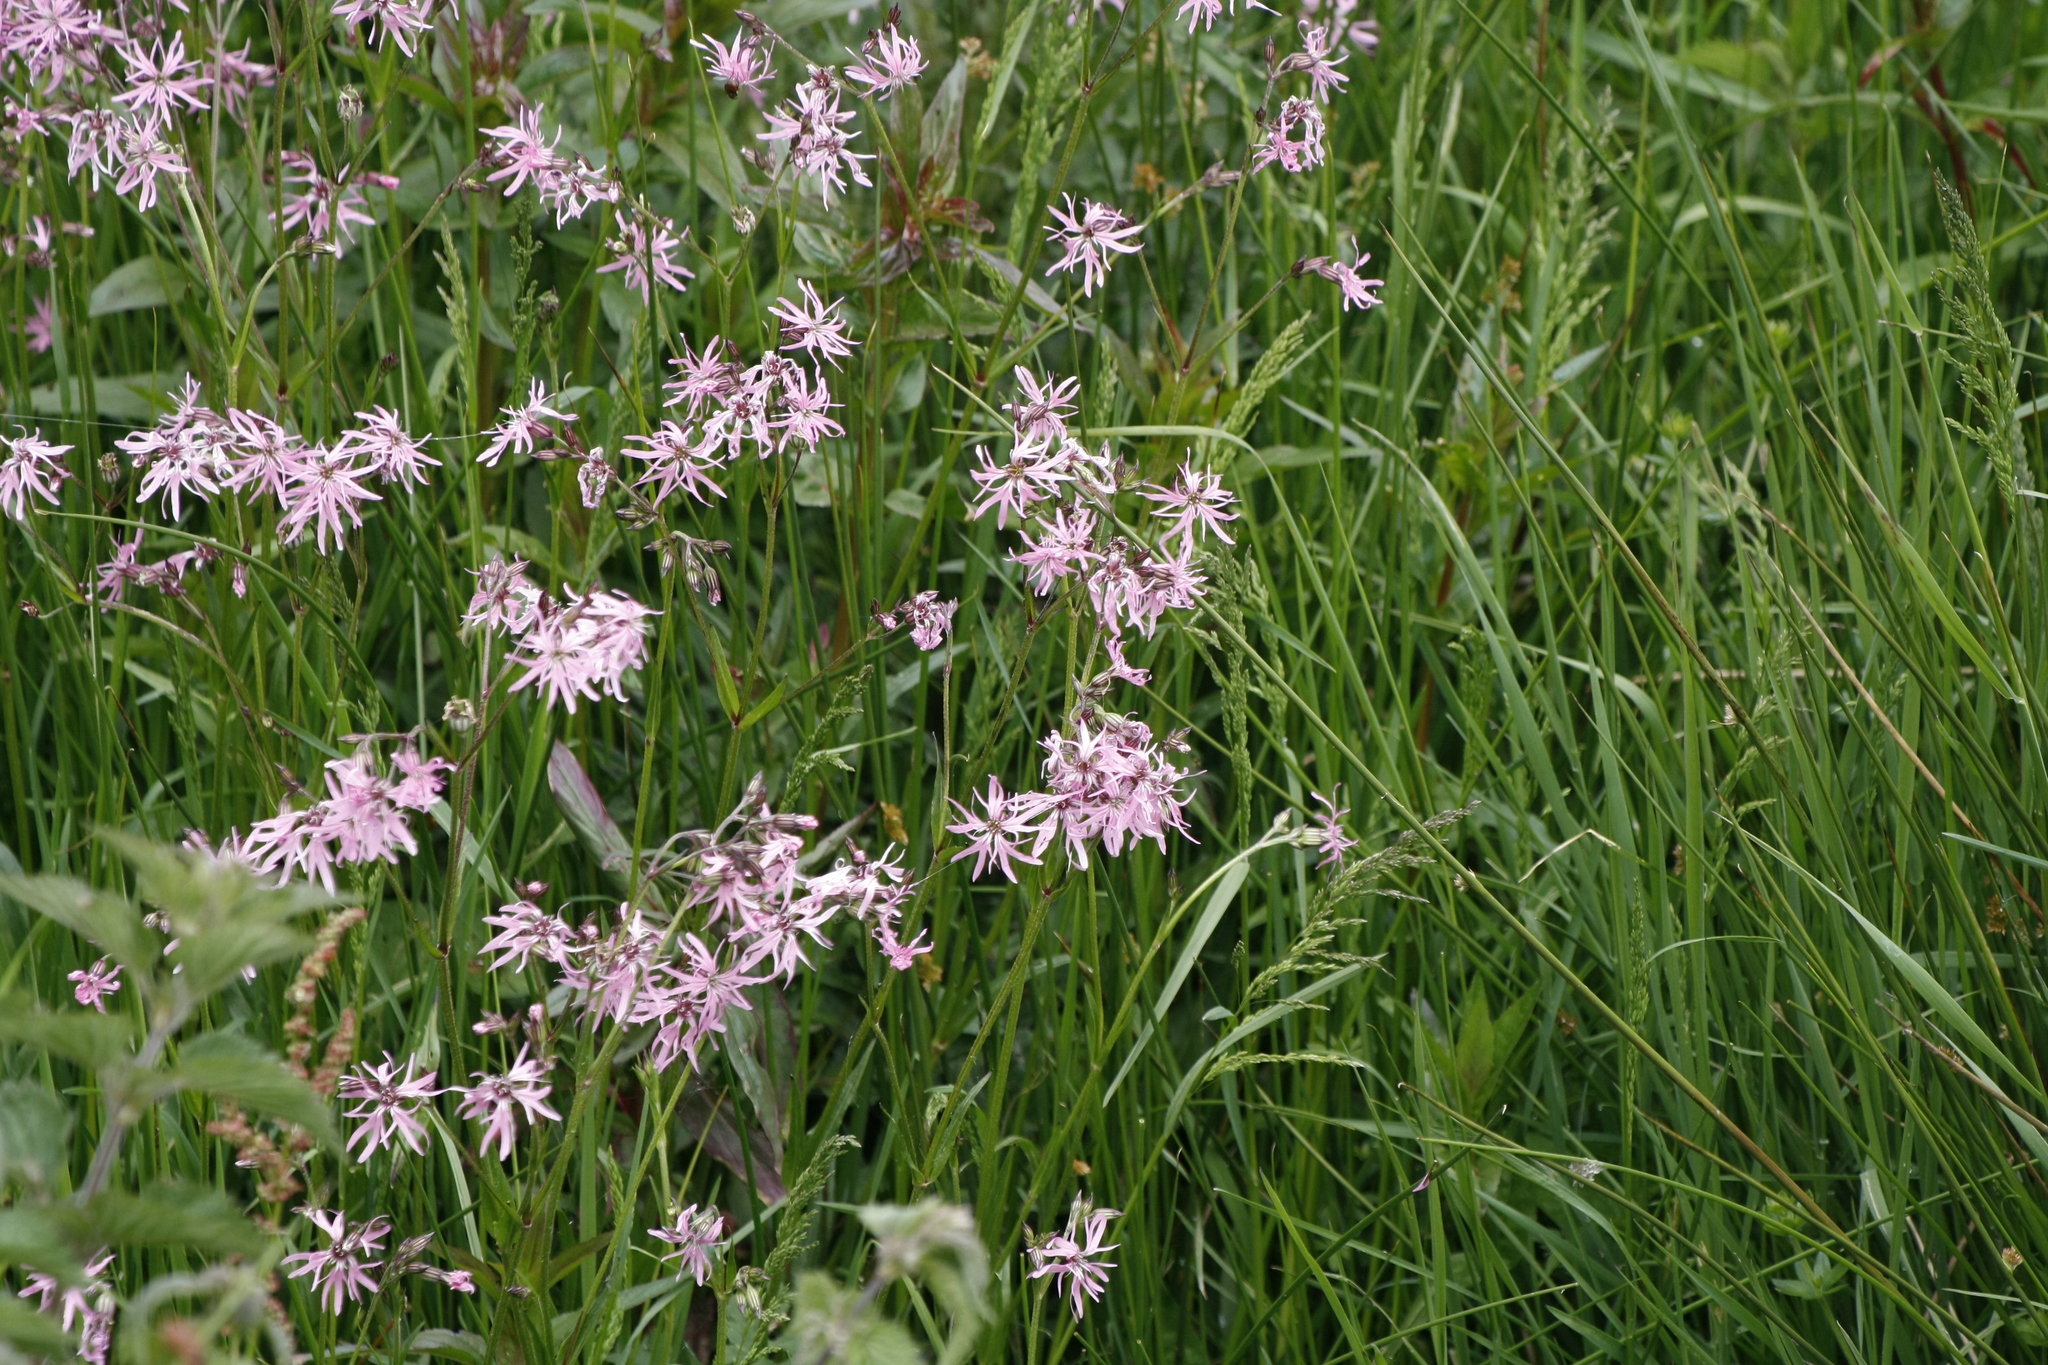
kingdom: Plantae
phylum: Tracheophyta
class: Magnoliopsida
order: Caryophyllales
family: Caryophyllaceae
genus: Silene
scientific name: Silene flos-cuculi
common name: Ragged-robin
